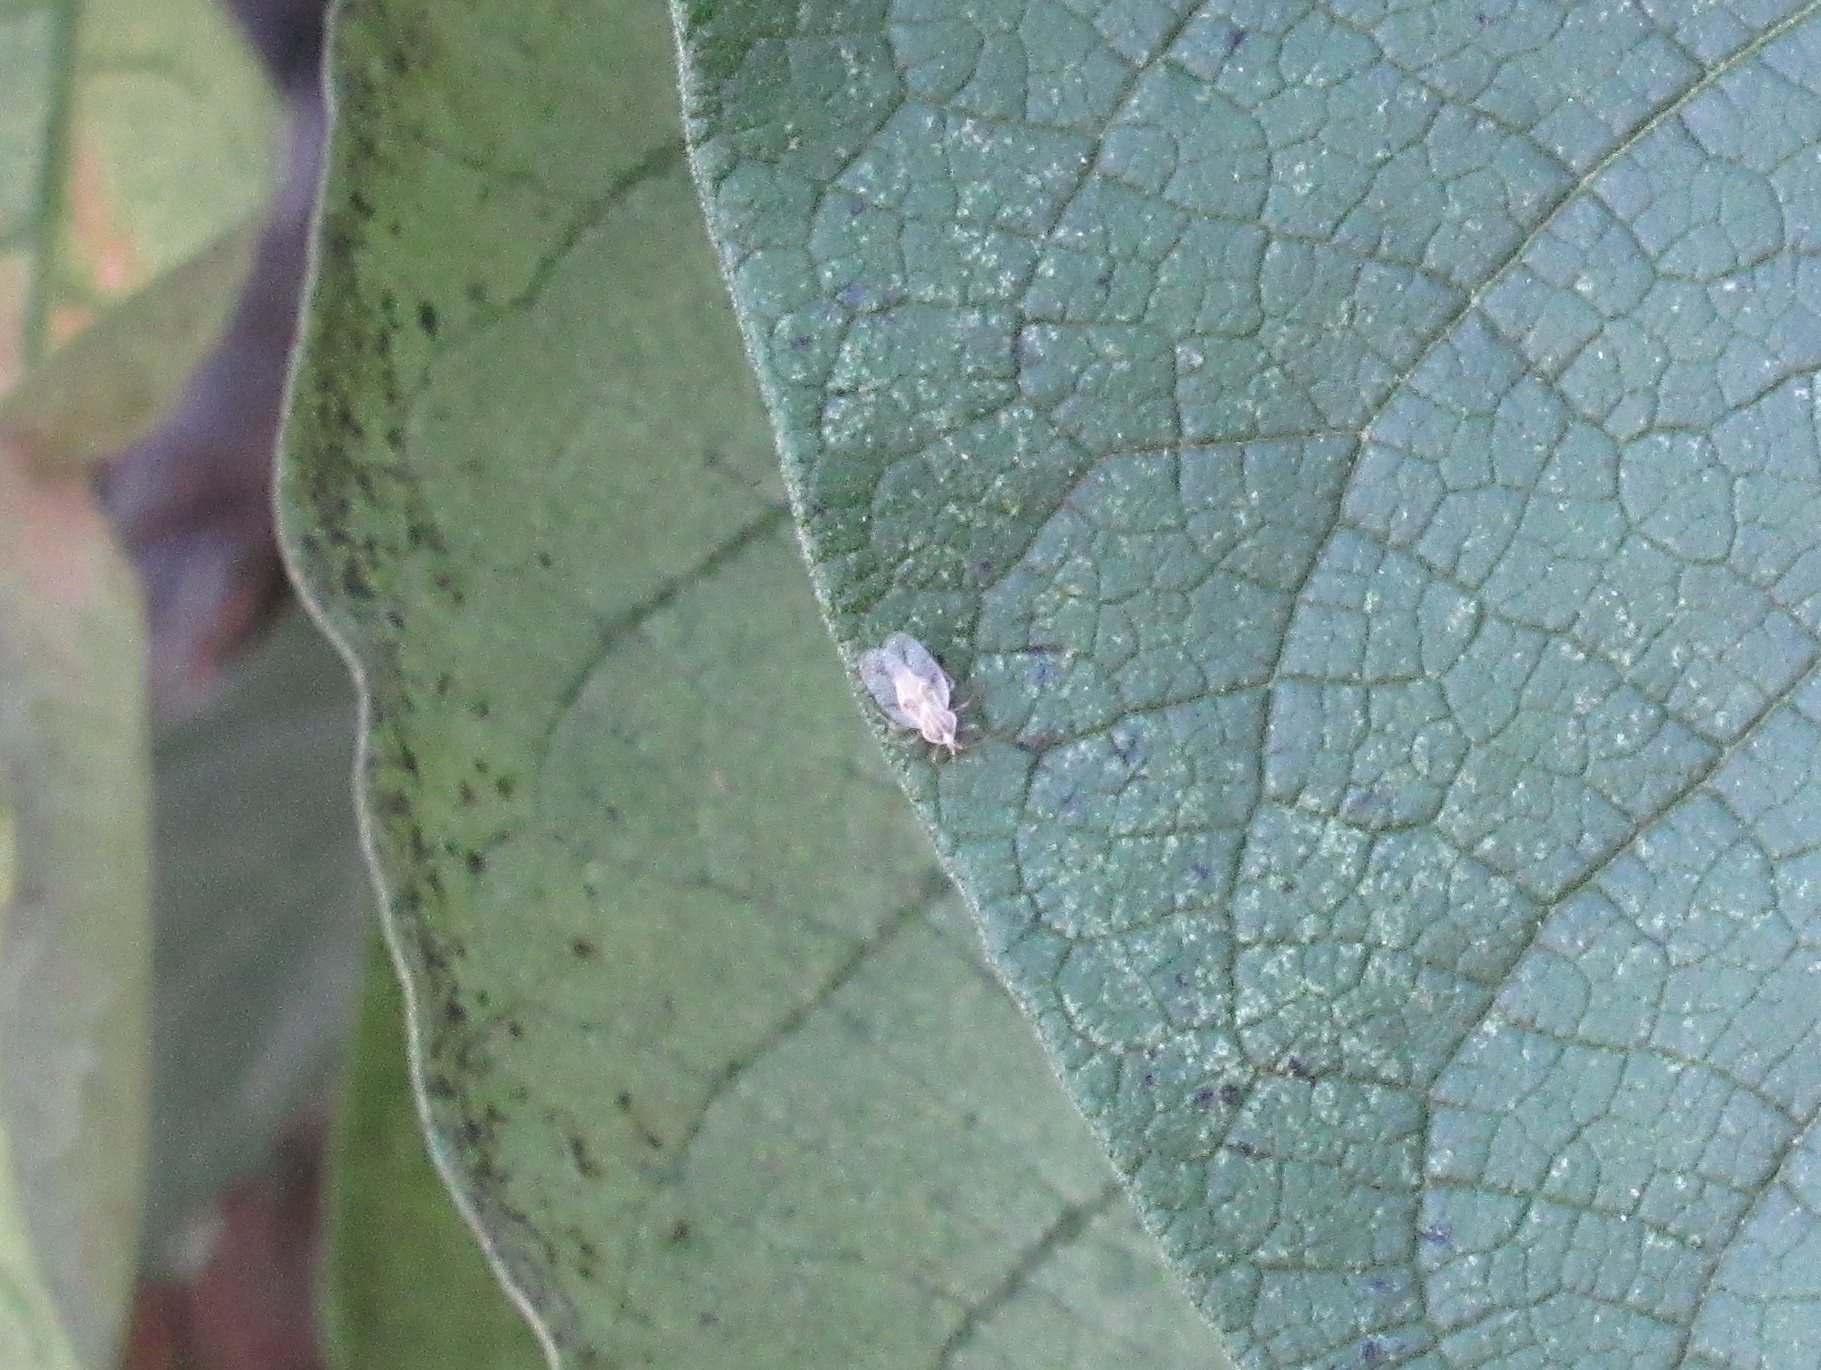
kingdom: Animalia
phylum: Arthropoda
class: Insecta
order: Hemiptera
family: Tingidae
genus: Gargaphia
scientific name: Gargaphia decoris
